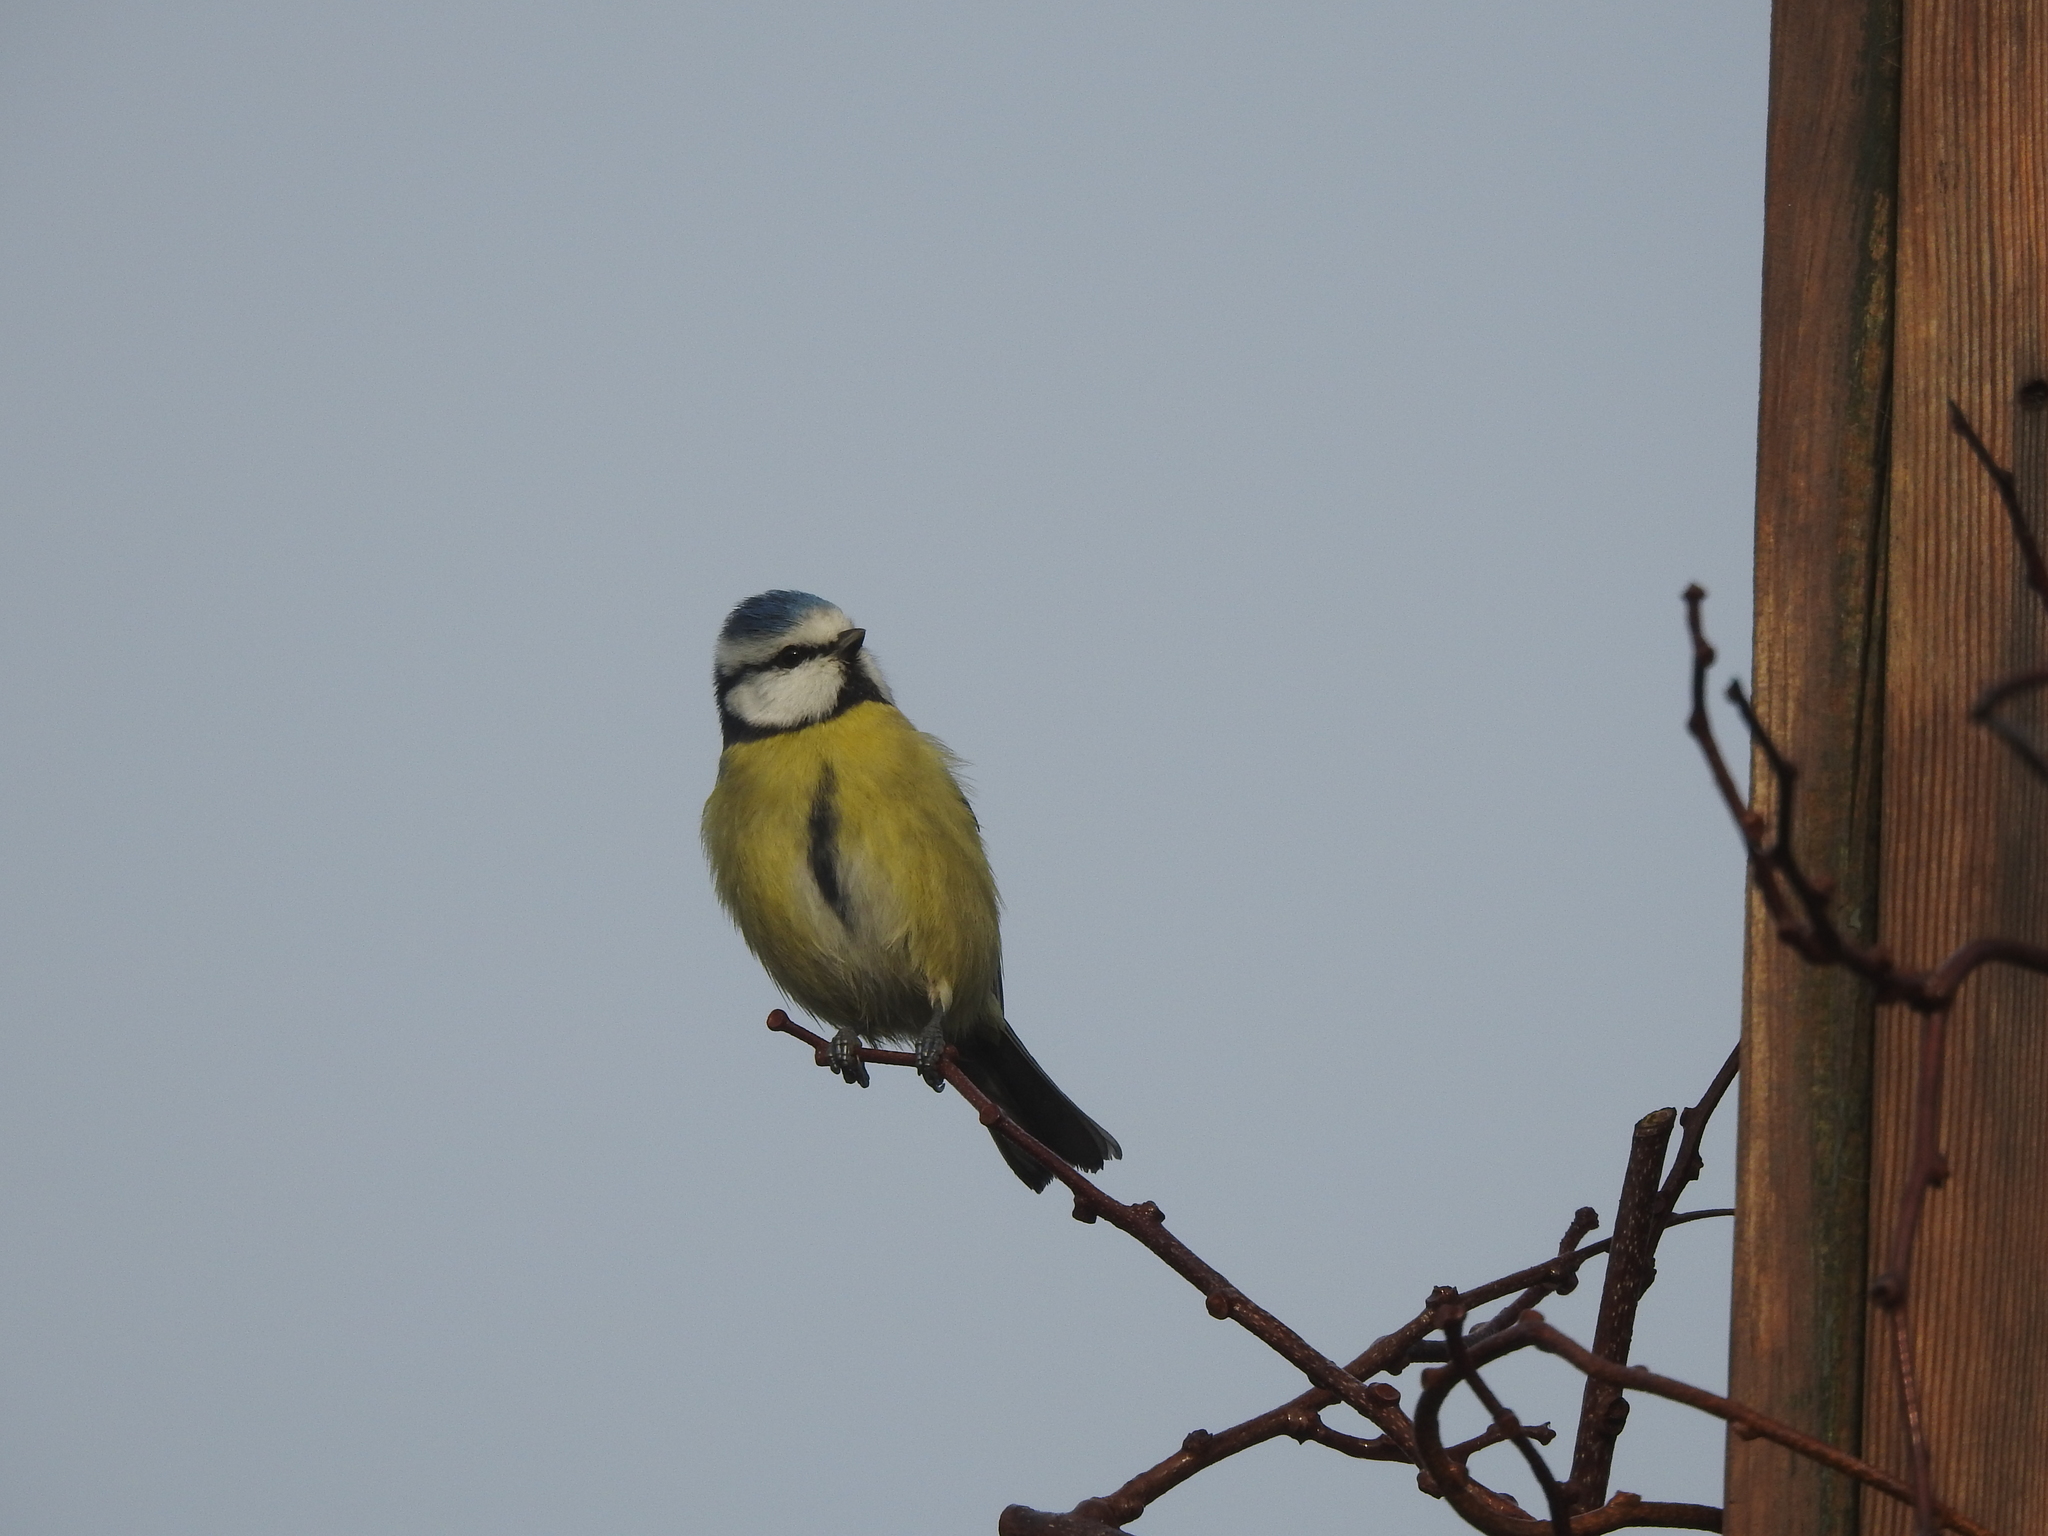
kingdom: Animalia
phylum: Chordata
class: Aves
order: Passeriformes
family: Paridae
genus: Cyanistes
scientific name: Cyanistes caeruleus
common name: Eurasian blue tit
